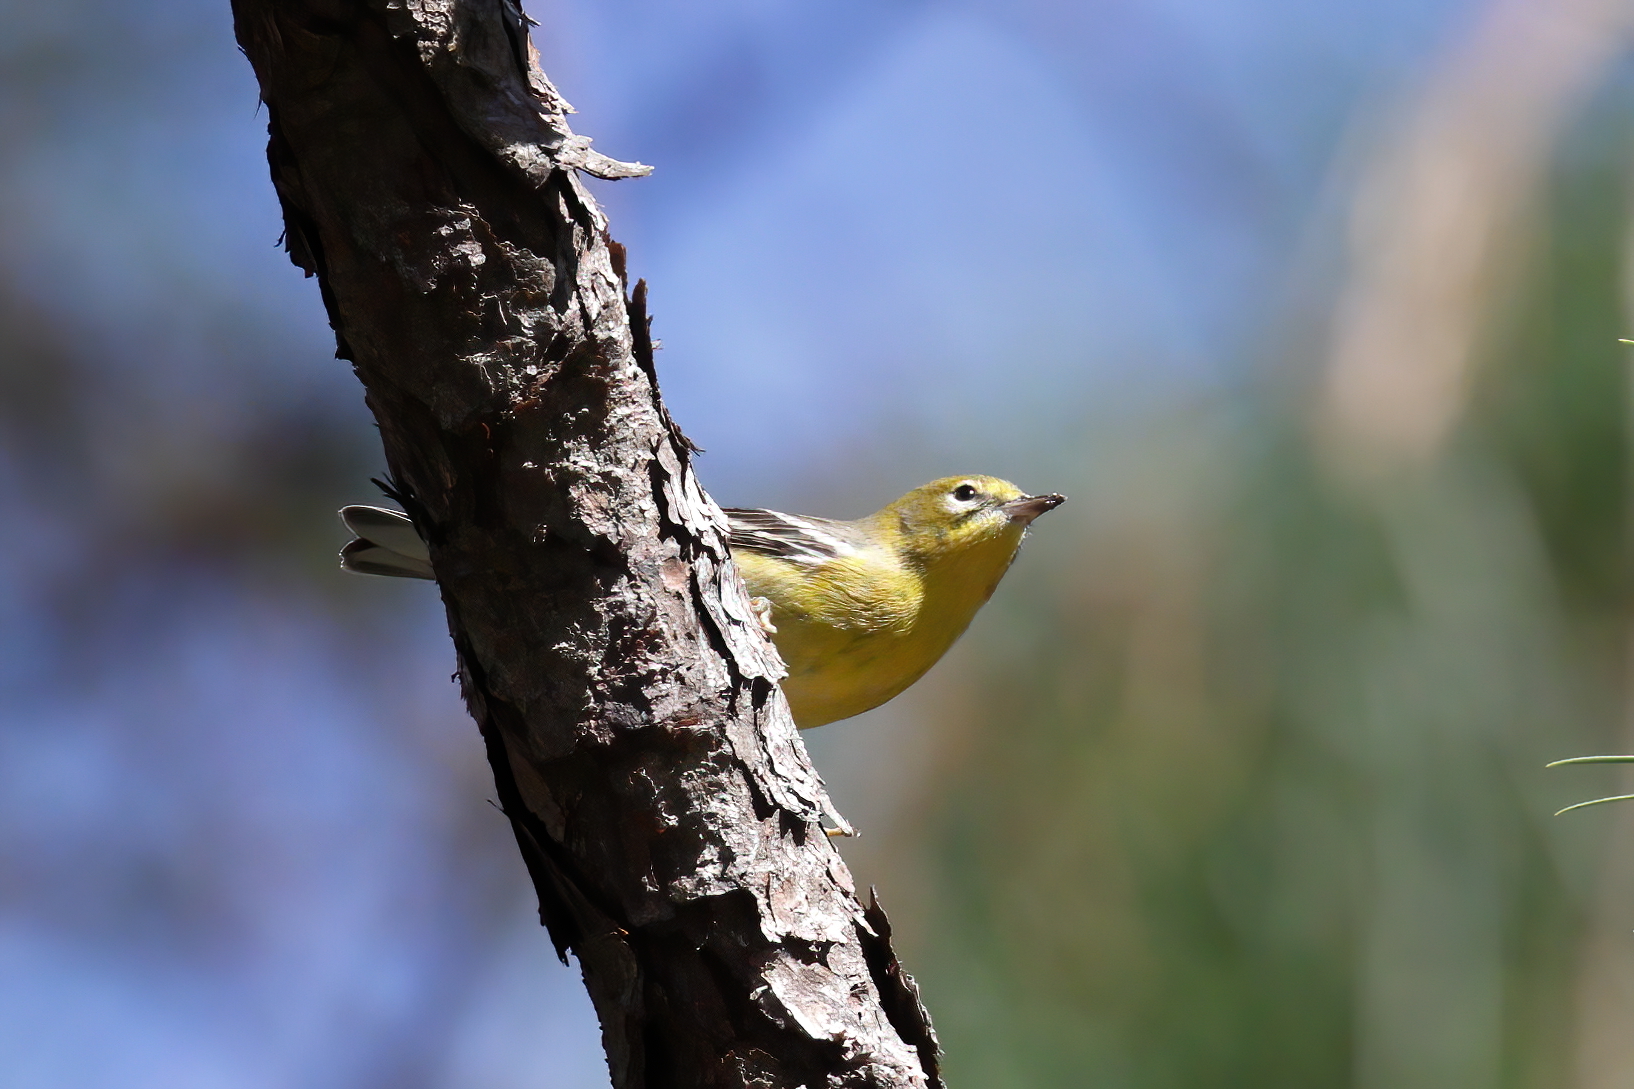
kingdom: Animalia
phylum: Chordata
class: Aves
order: Passeriformes
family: Parulidae
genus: Setophaga
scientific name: Setophaga pinus
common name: Pine warbler
